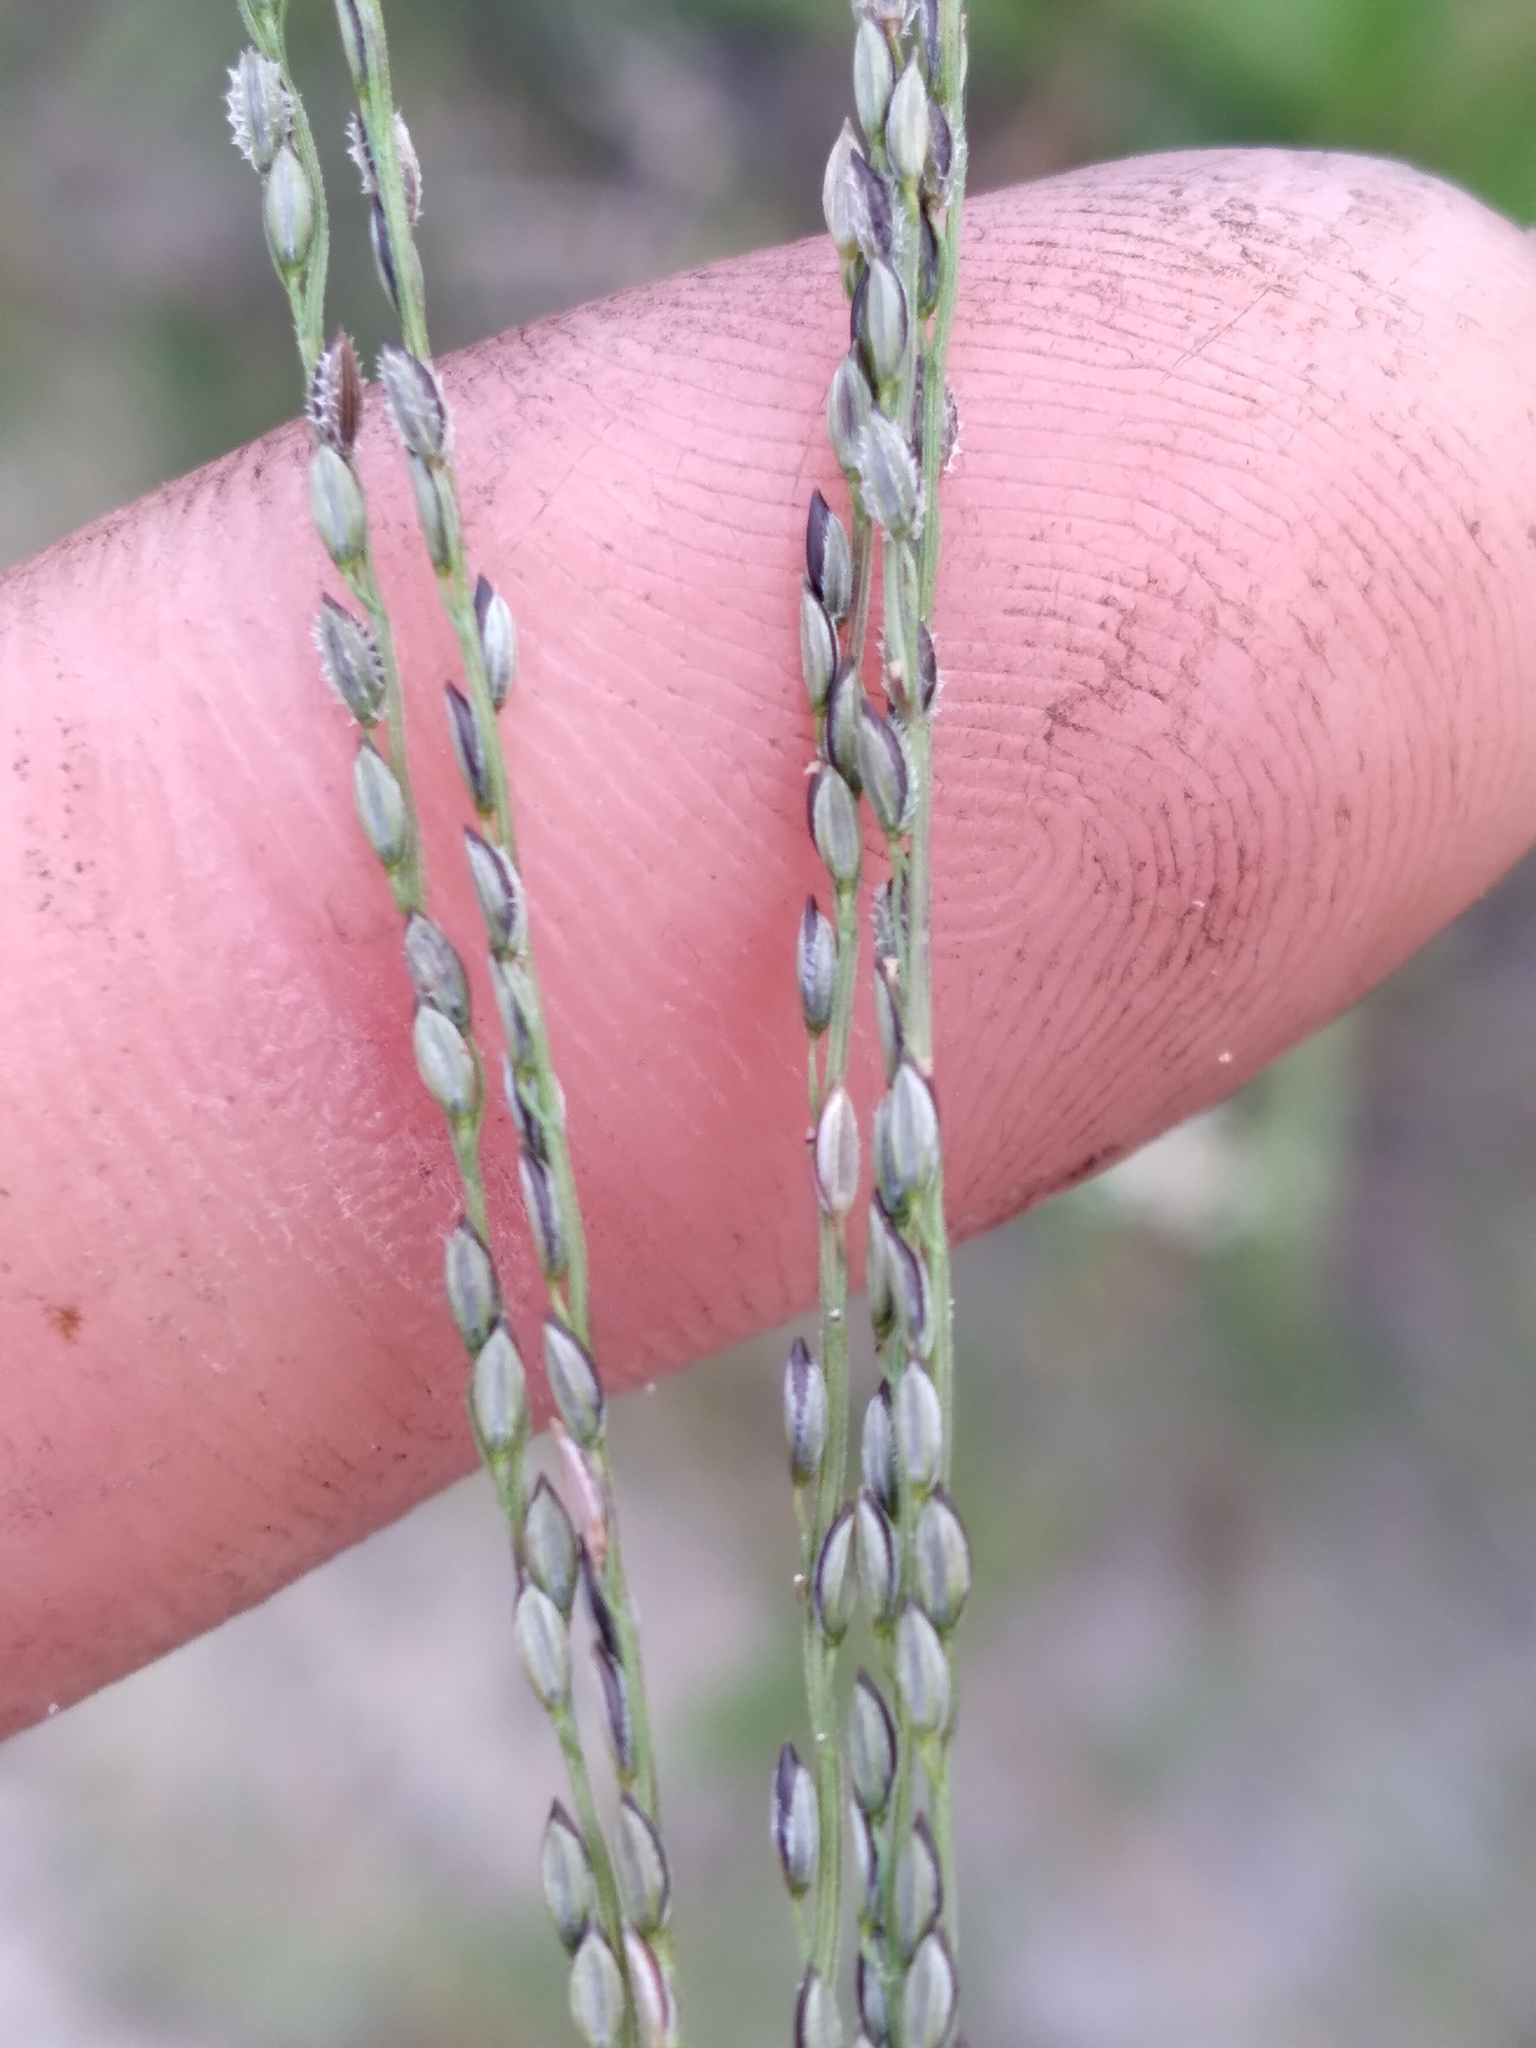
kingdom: Plantae
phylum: Tracheophyta
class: Liliopsida
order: Poales
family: Poaceae
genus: Digitaria
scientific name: Digitaria filiformis
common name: Slender crabgrass
